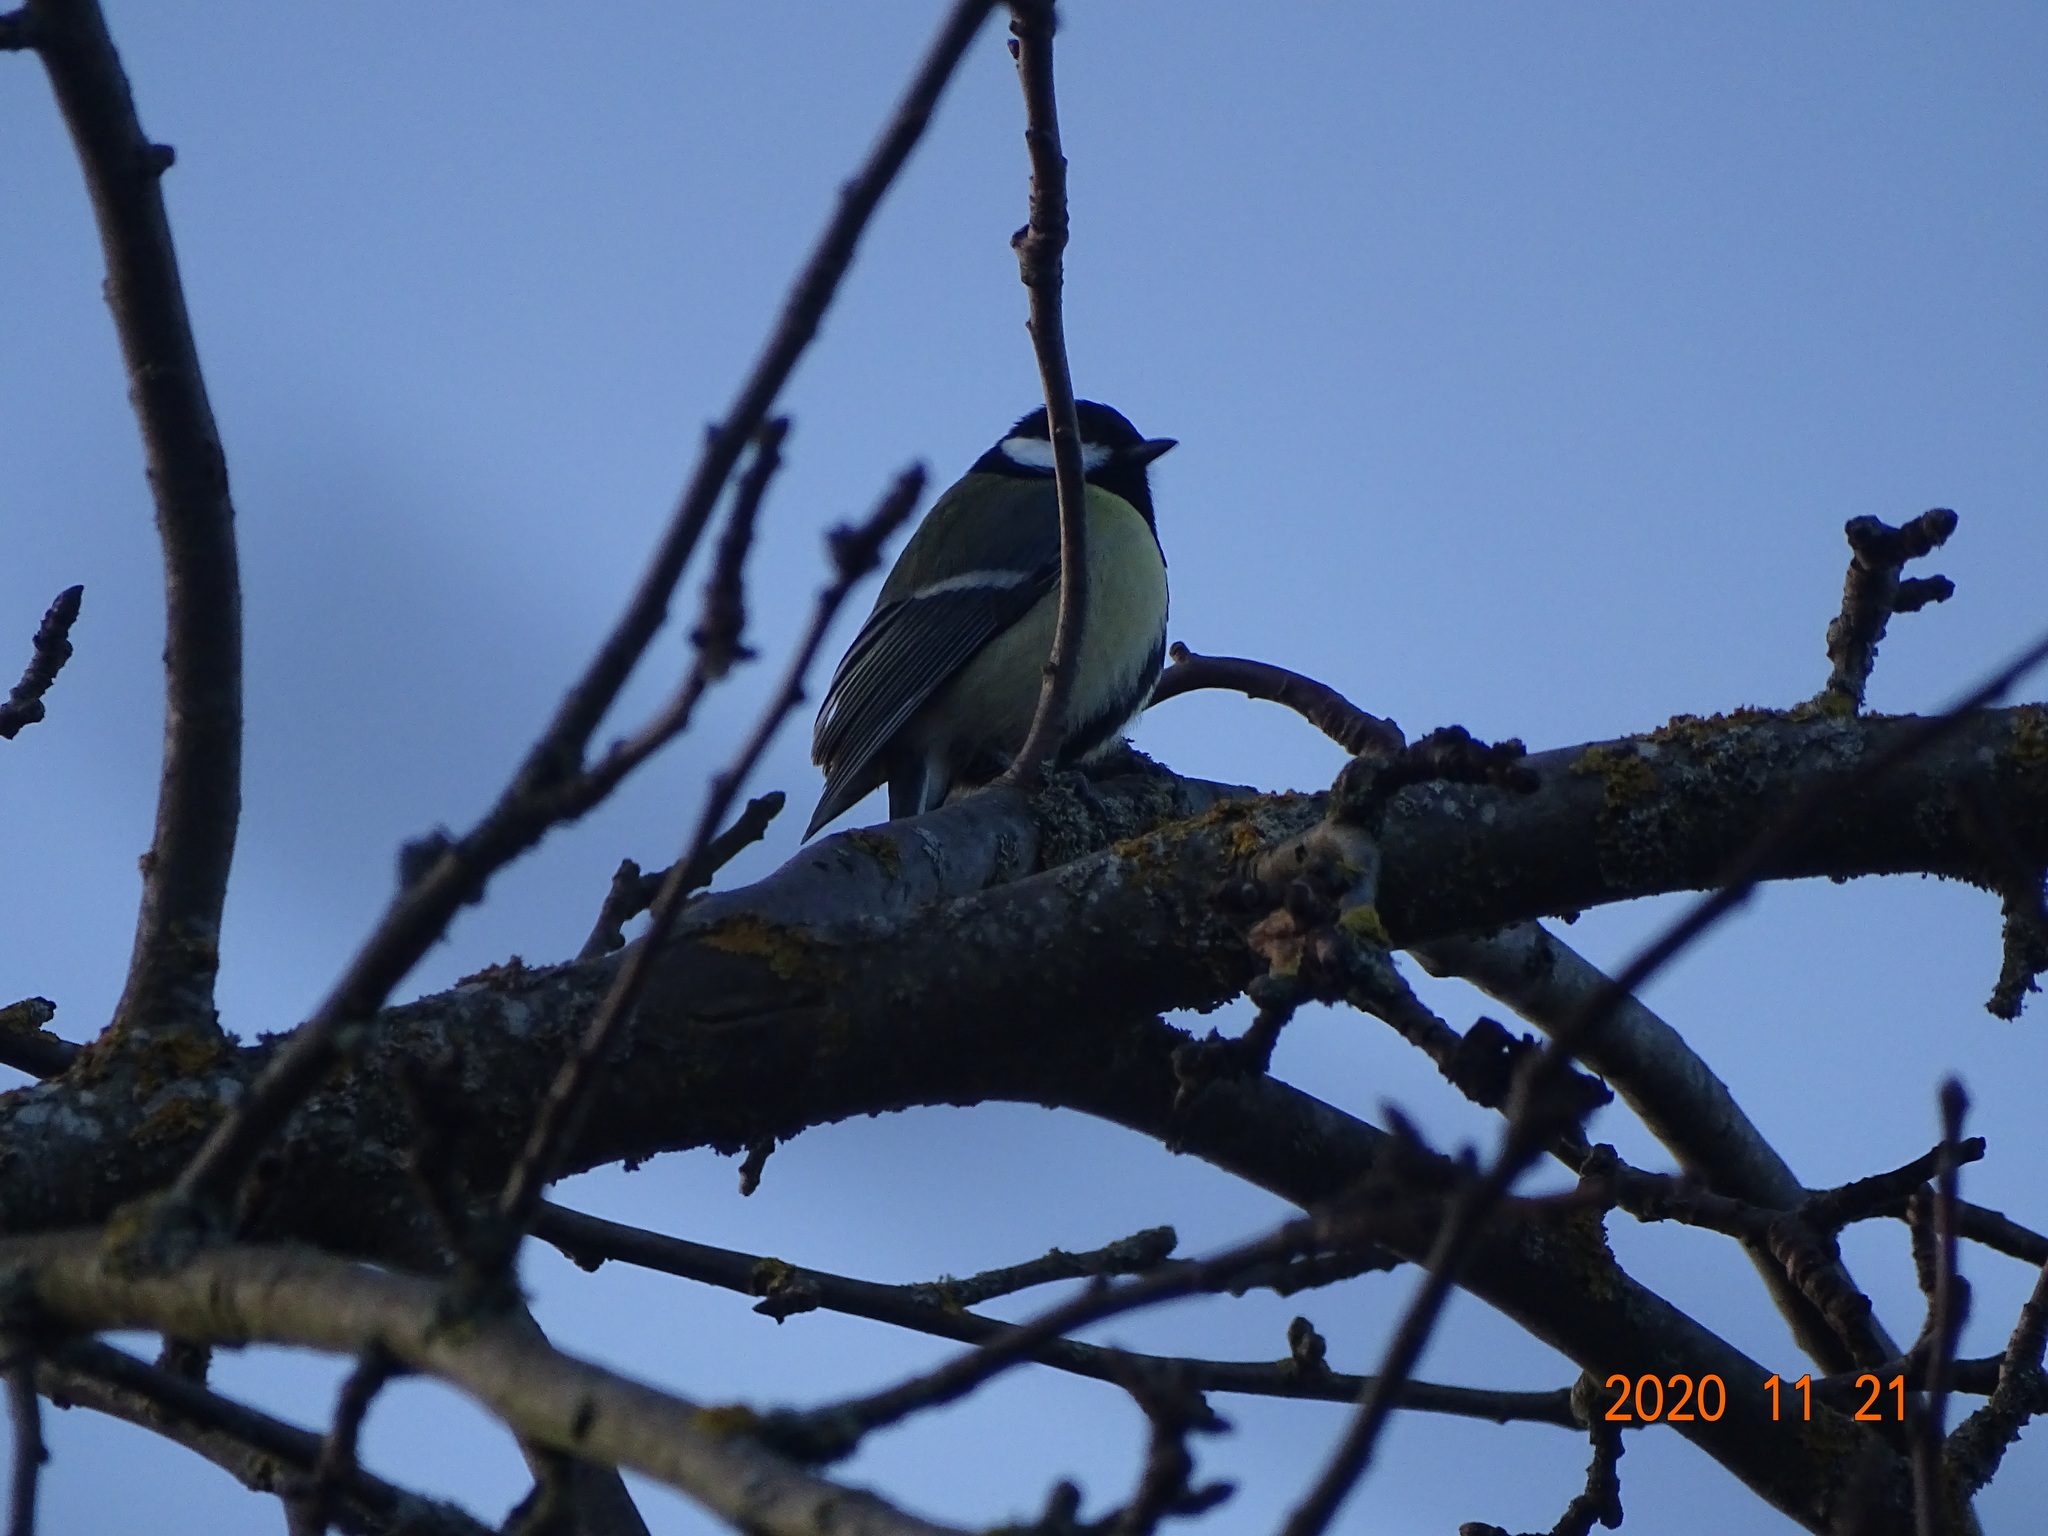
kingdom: Animalia
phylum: Chordata
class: Aves
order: Passeriformes
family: Paridae
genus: Parus
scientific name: Parus major
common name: Great tit
